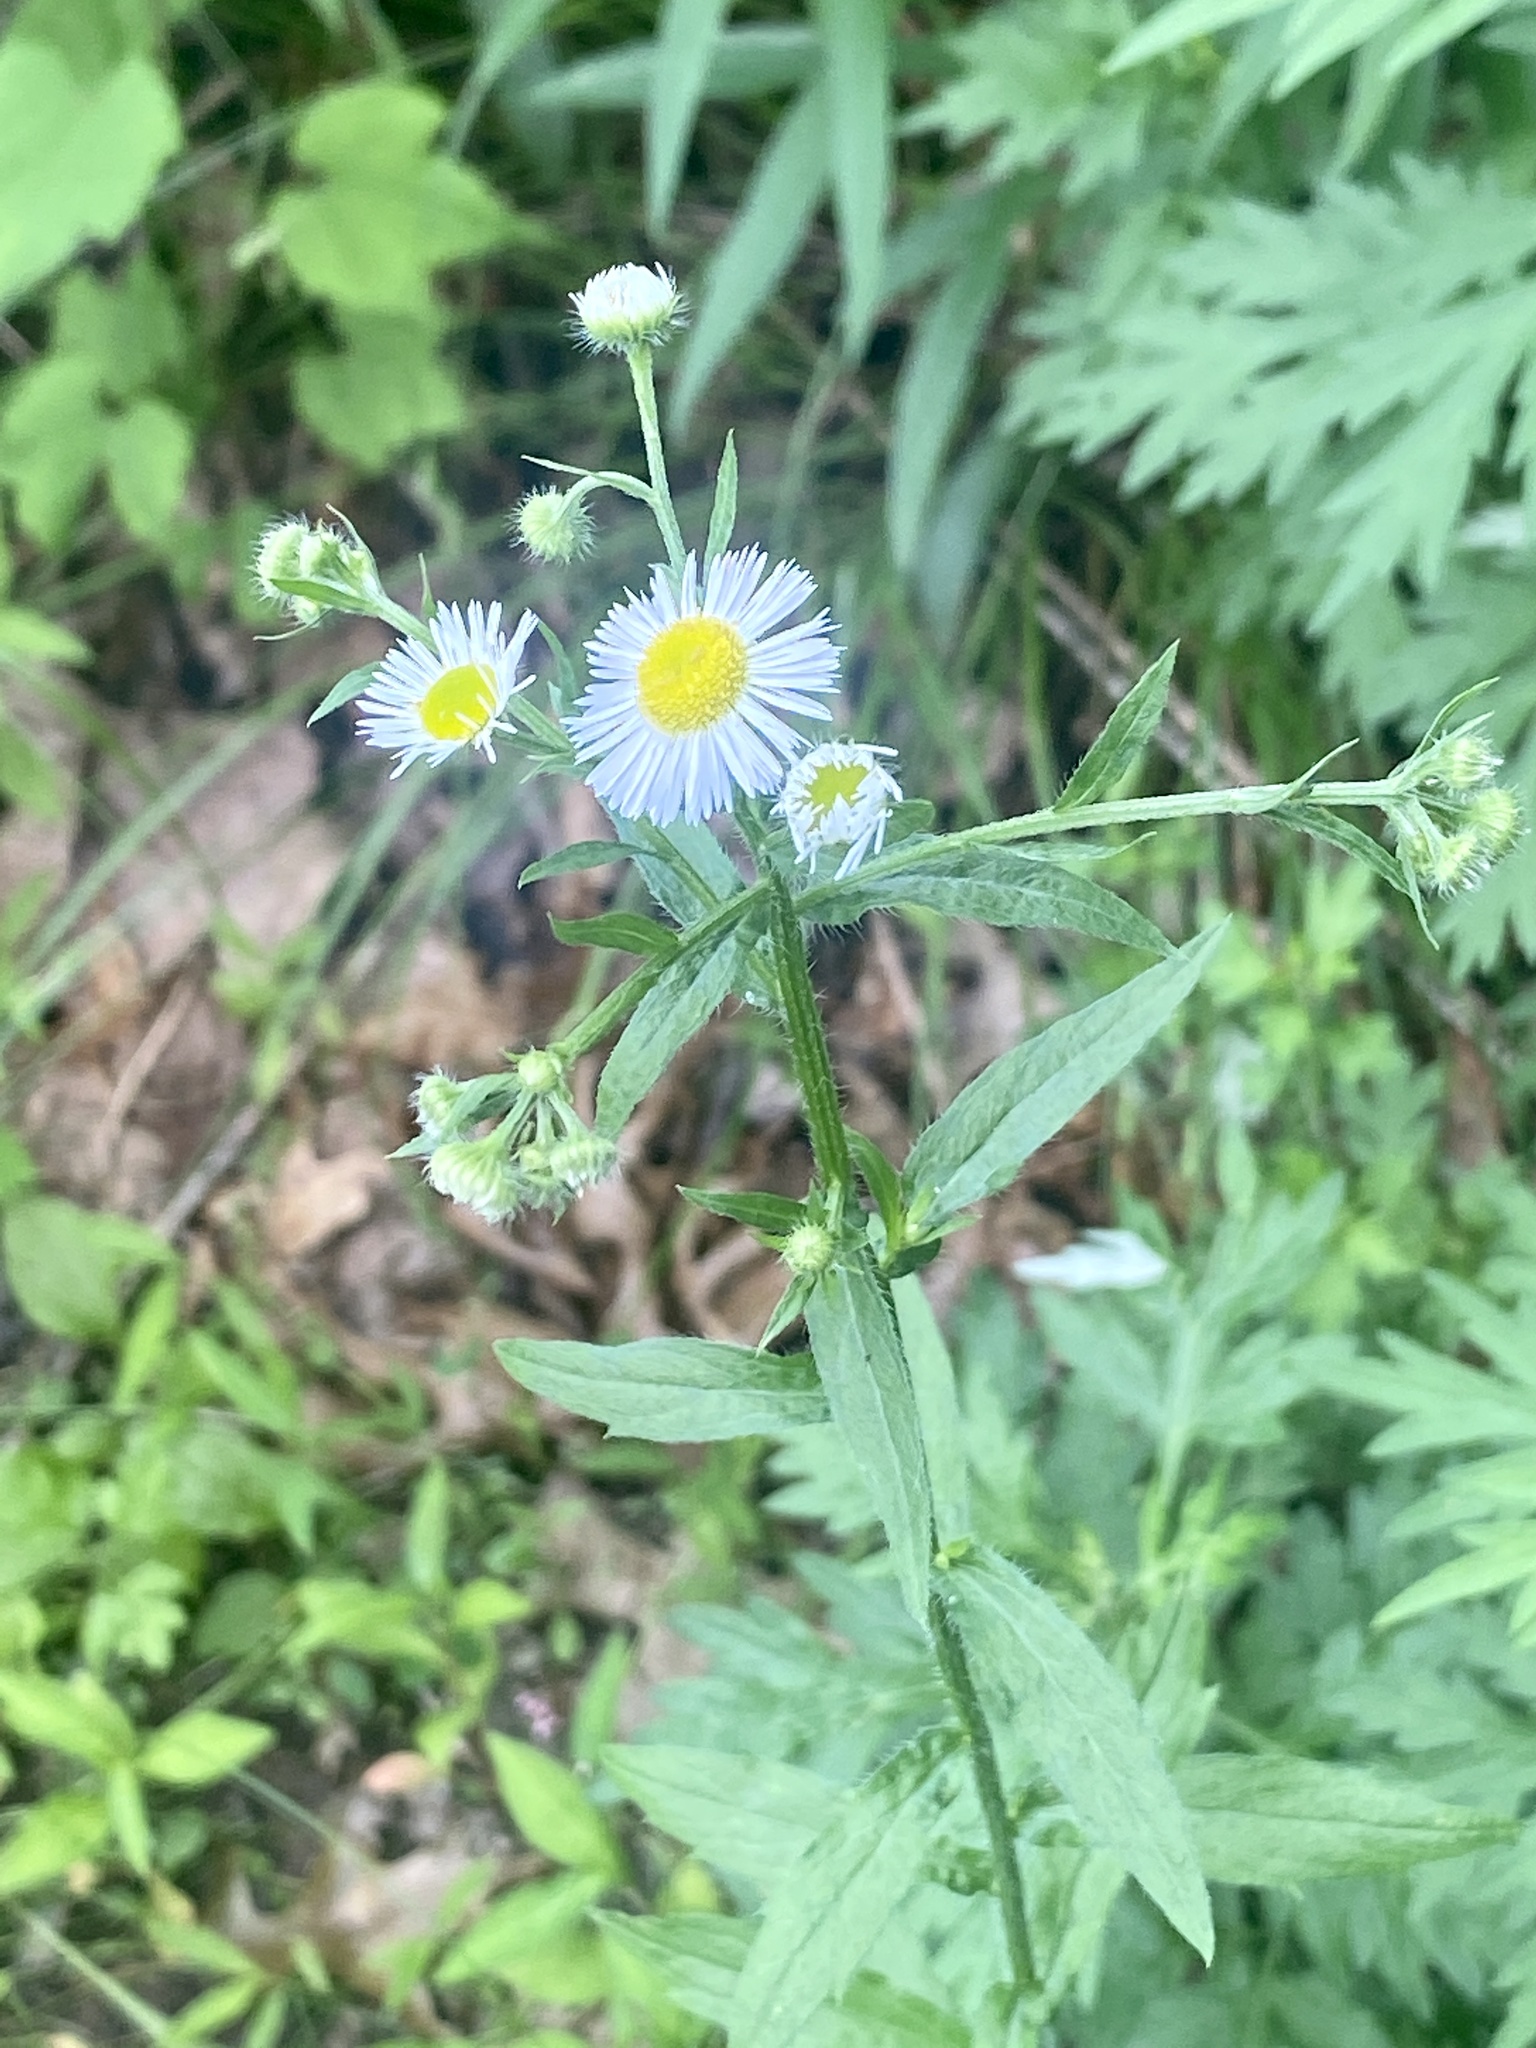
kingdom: Plantae
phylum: Tracheophyta
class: Magnoliopsida
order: Asterales
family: Asteraceae
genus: Erigeron
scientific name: Erigeron annuus
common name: Tall fleabane
